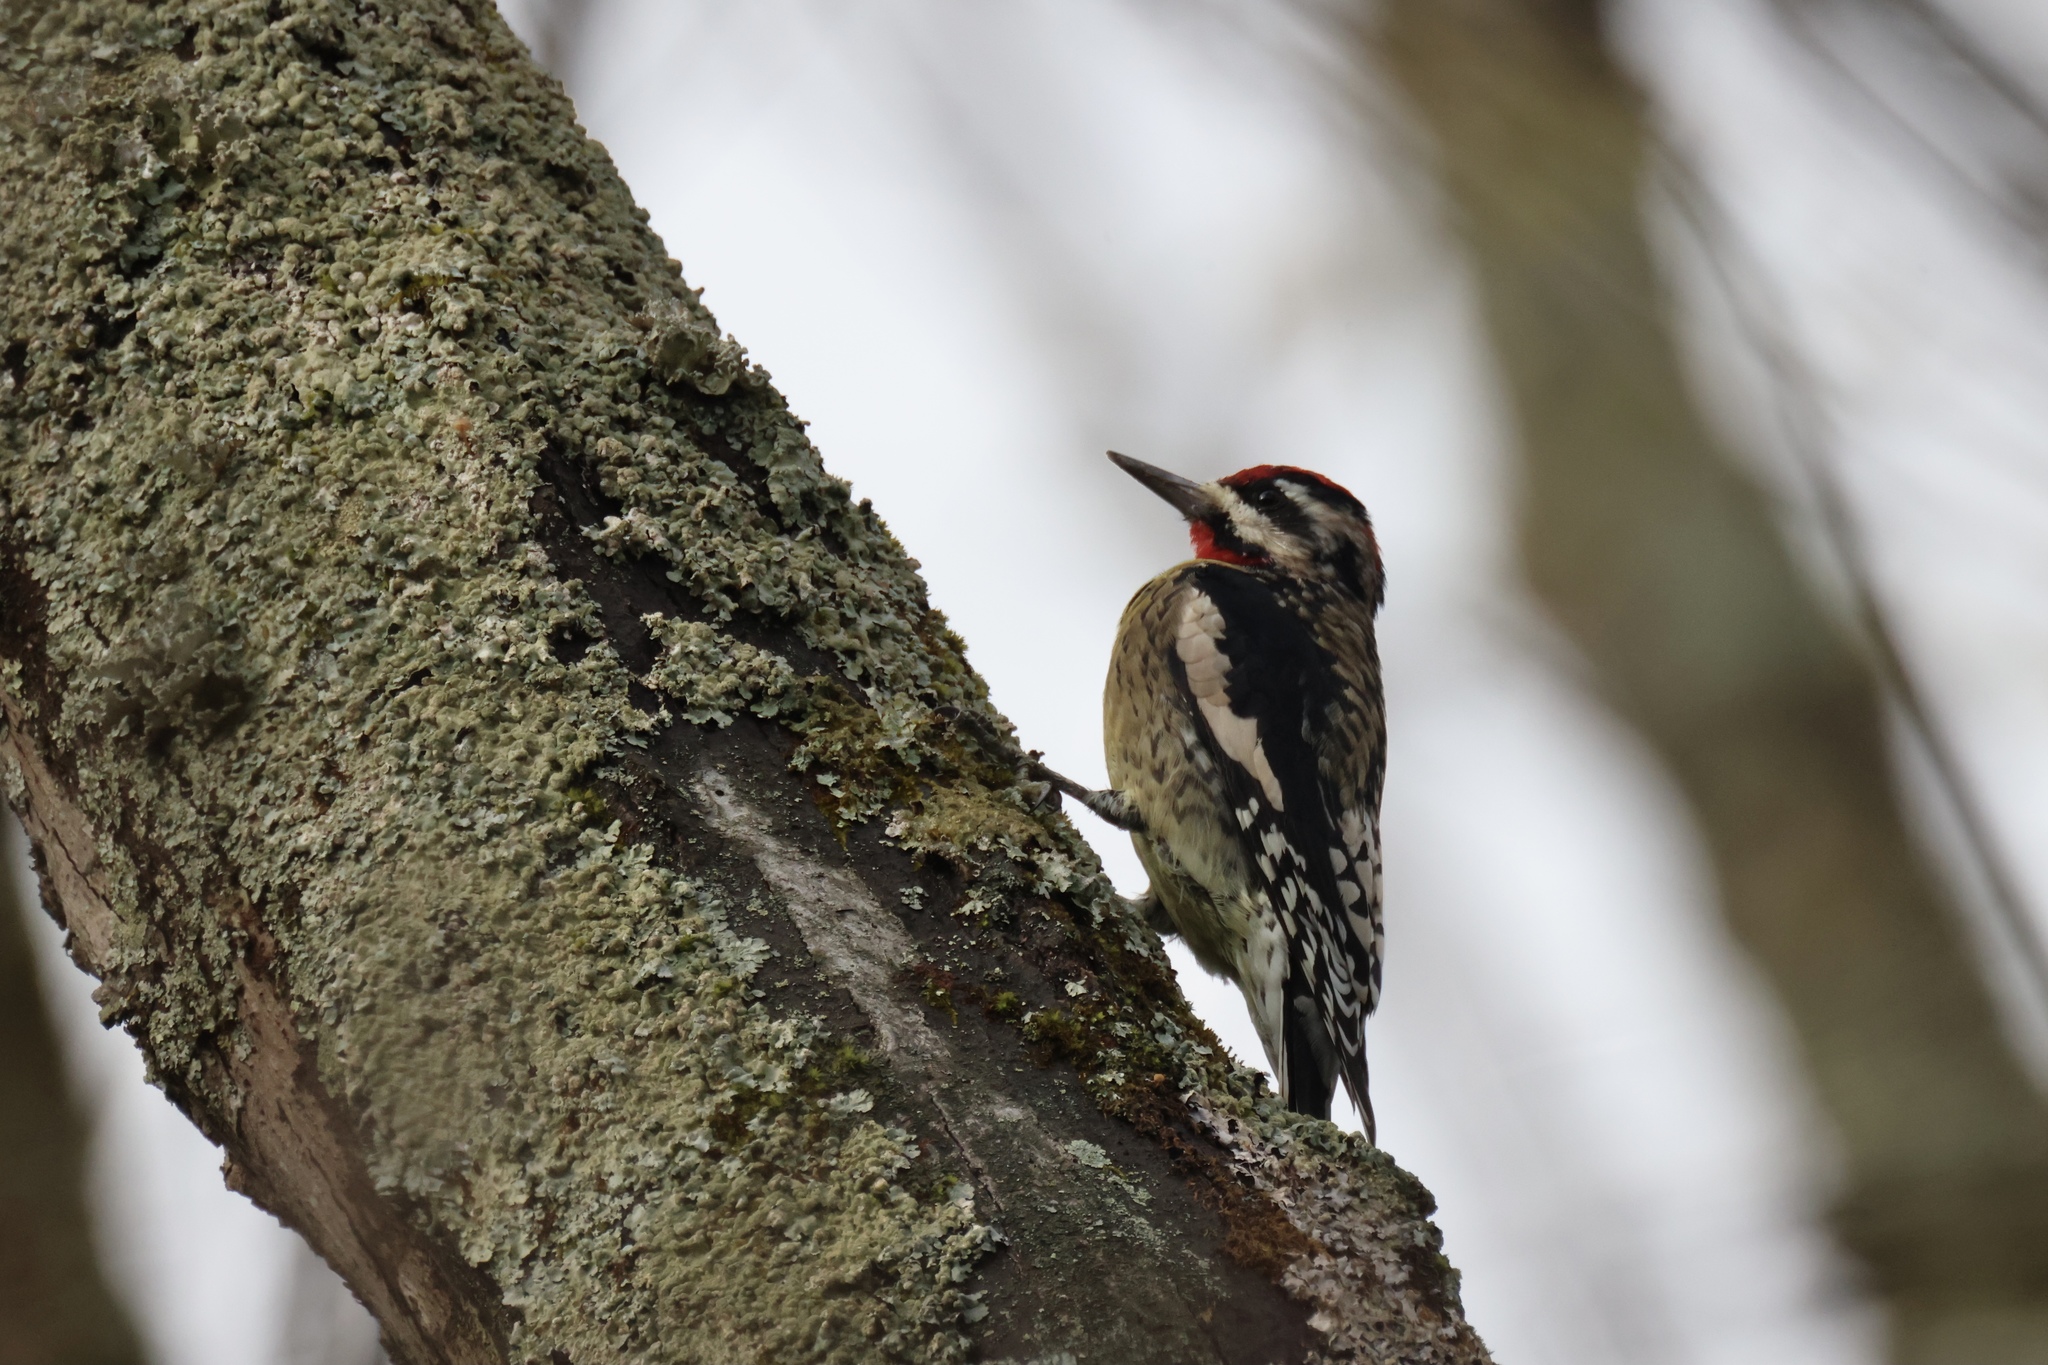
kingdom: Animalia
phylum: Chordata
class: Aves
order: Piciformes
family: Picidae
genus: Sphyrapicus
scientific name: Sphyrapicus varius
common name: Yellow-bellied sapsucker
